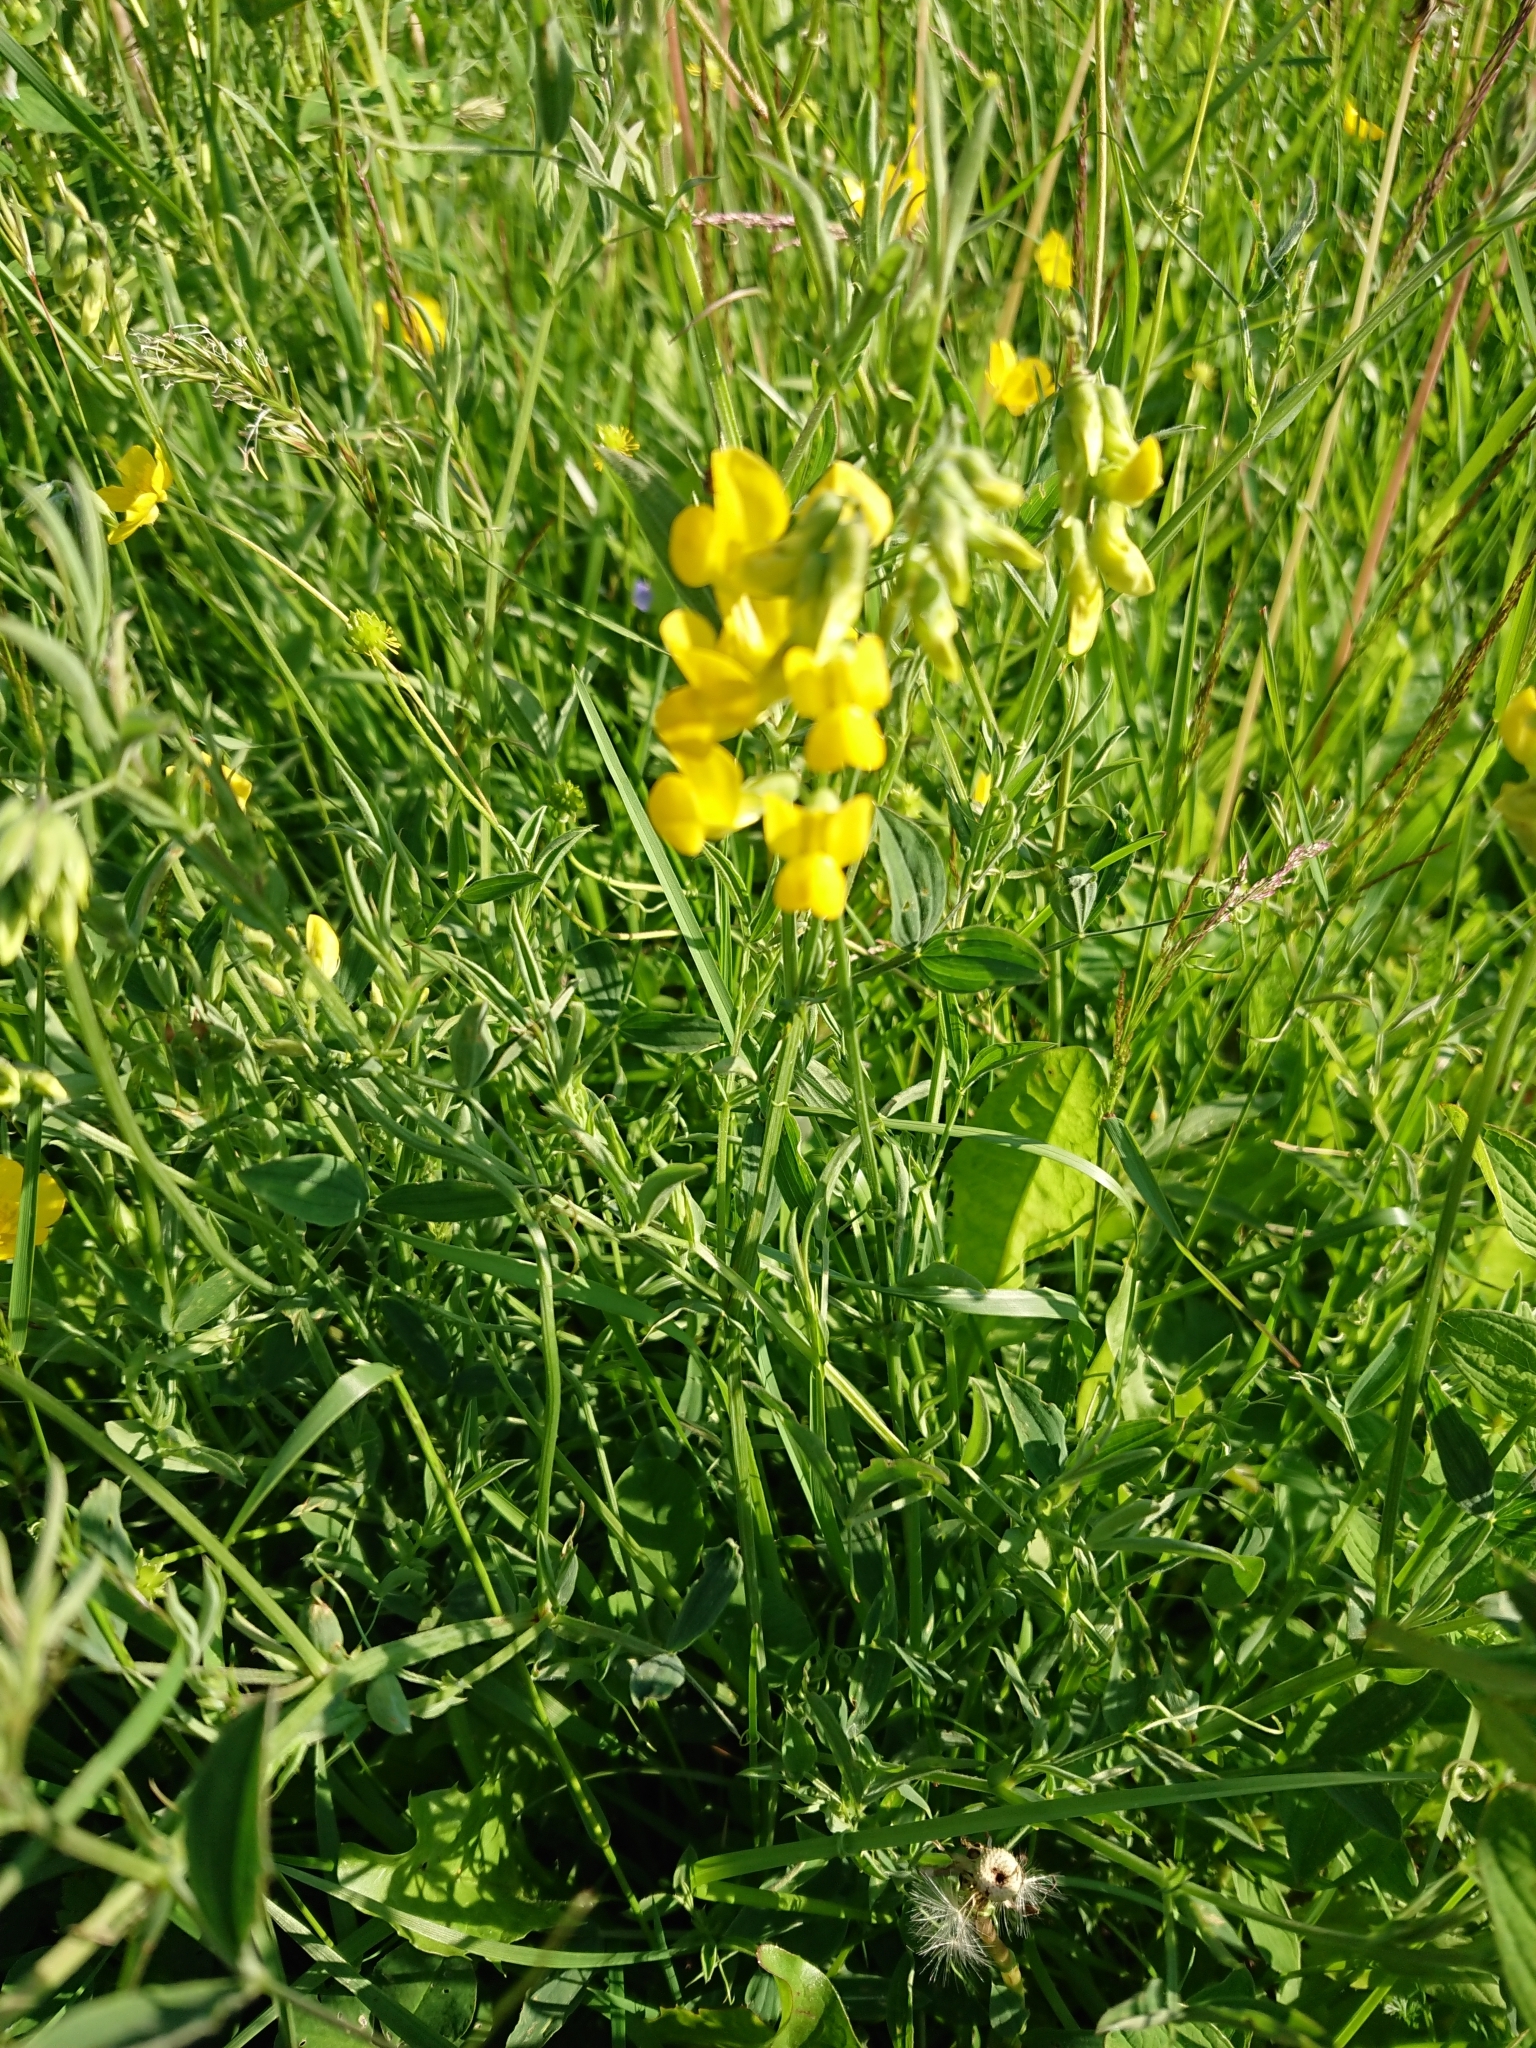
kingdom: Plantae
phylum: Tracheophyta
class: Magnoliopsida
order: Fabales
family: Fabaceae
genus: Lathyrus
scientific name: Lathyrus pratensis
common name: Meadow vetchling
